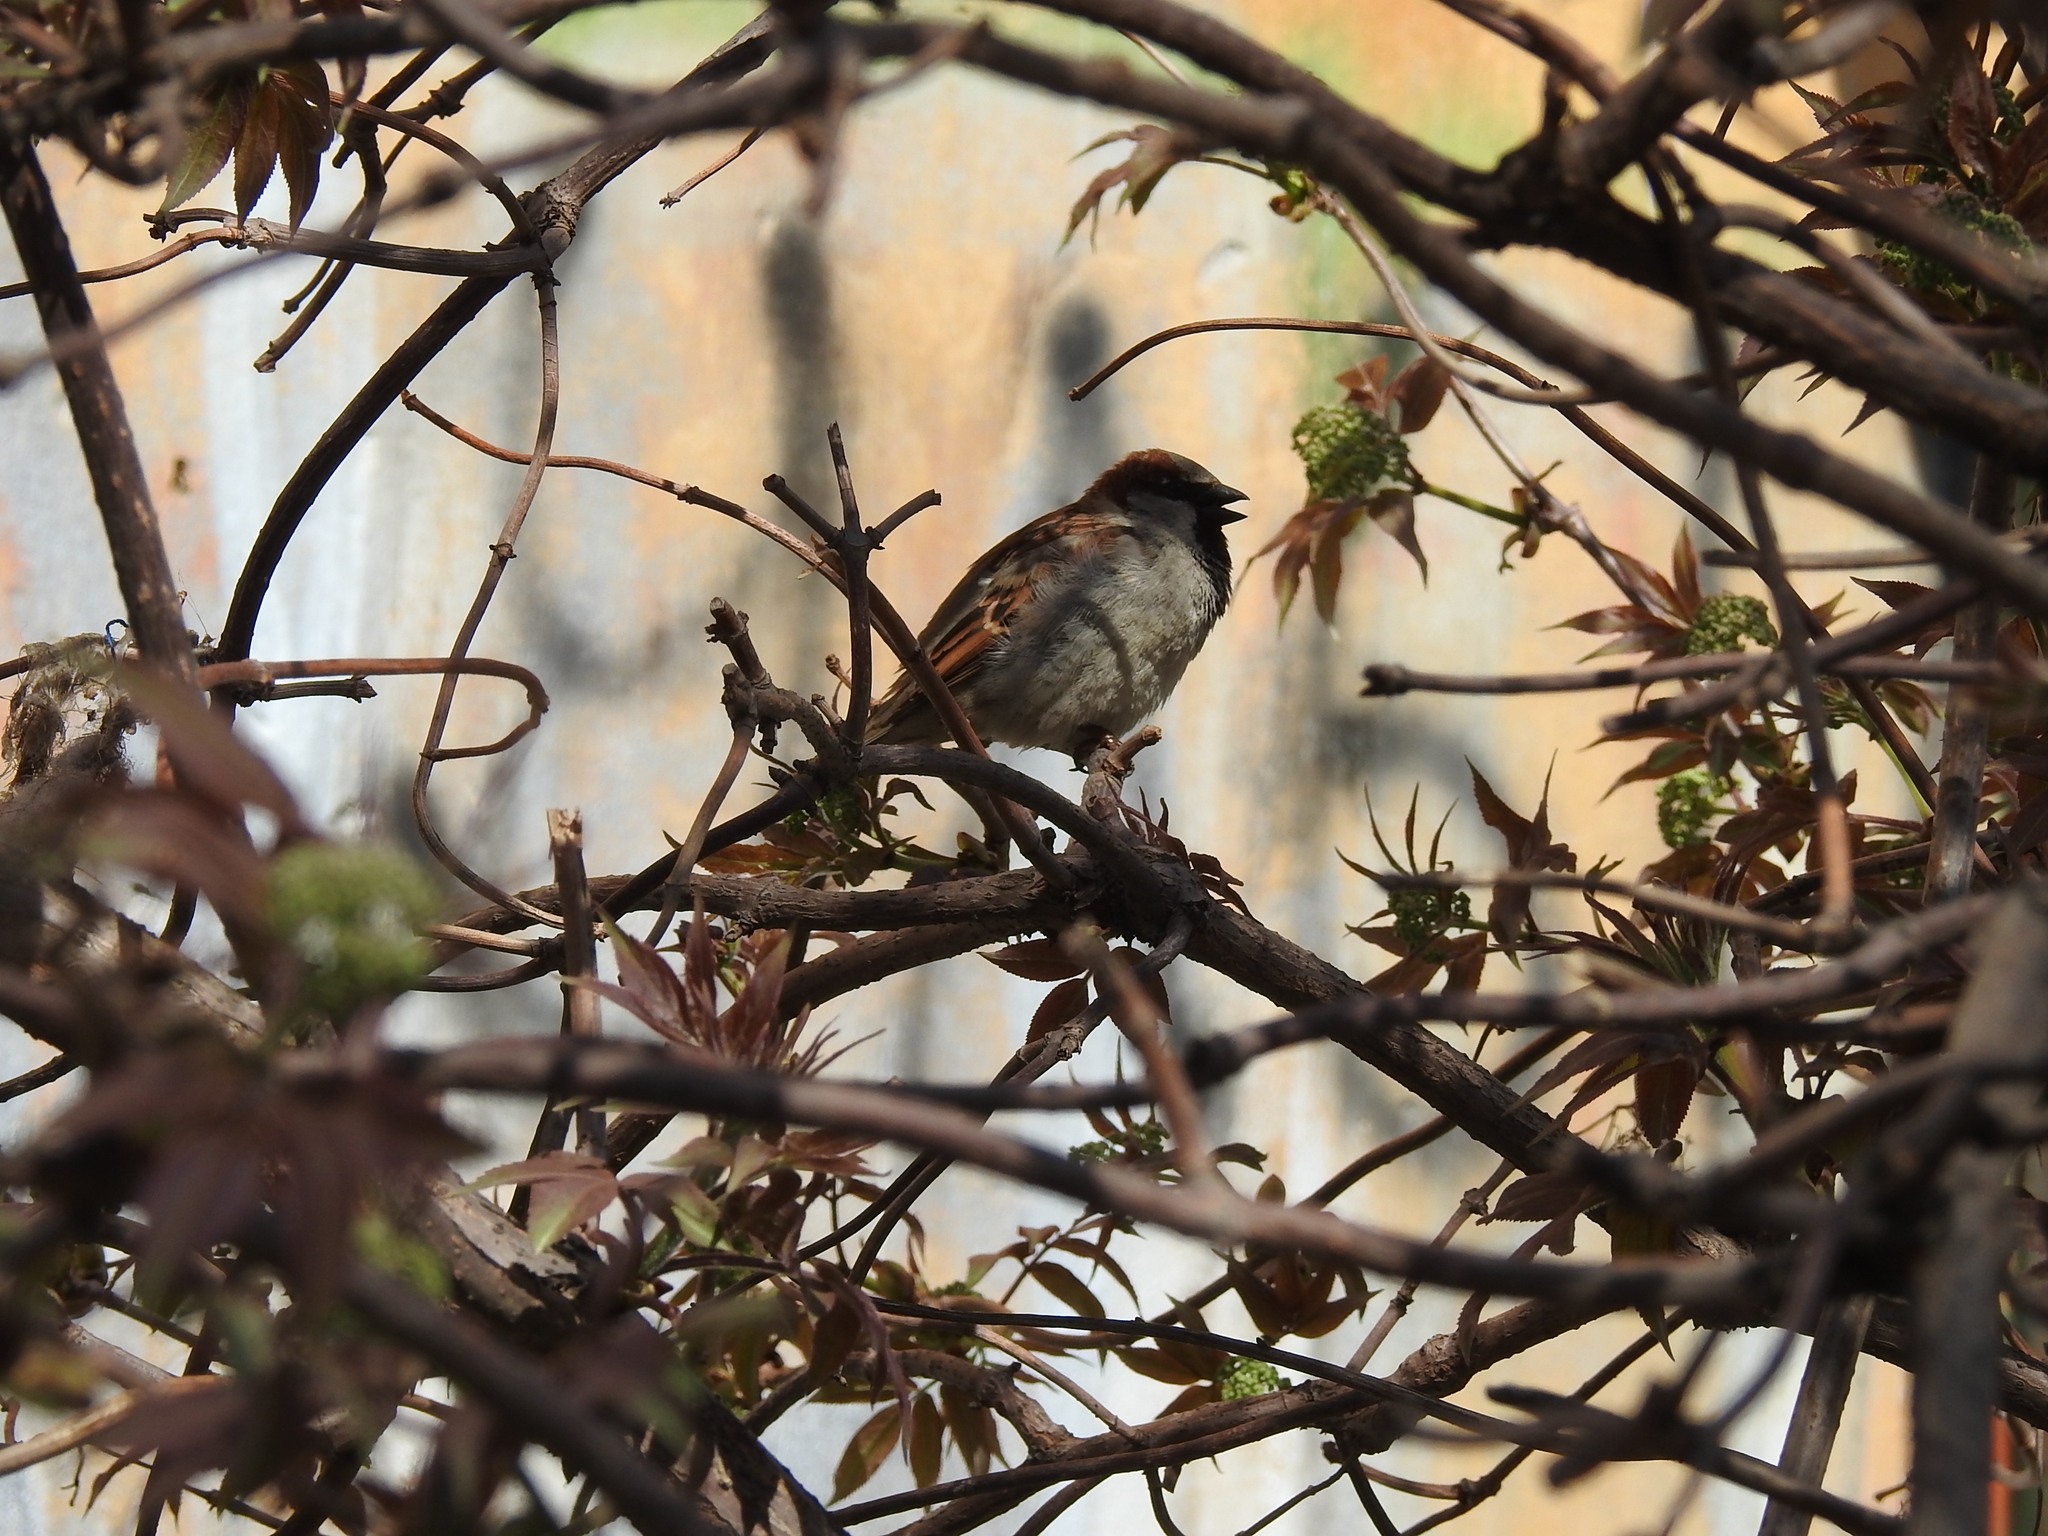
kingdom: Animalia
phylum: Chordata
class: Aves
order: Passeriformes
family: Passeridae
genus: Passer
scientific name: Passer domesticus
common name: House sparrow
